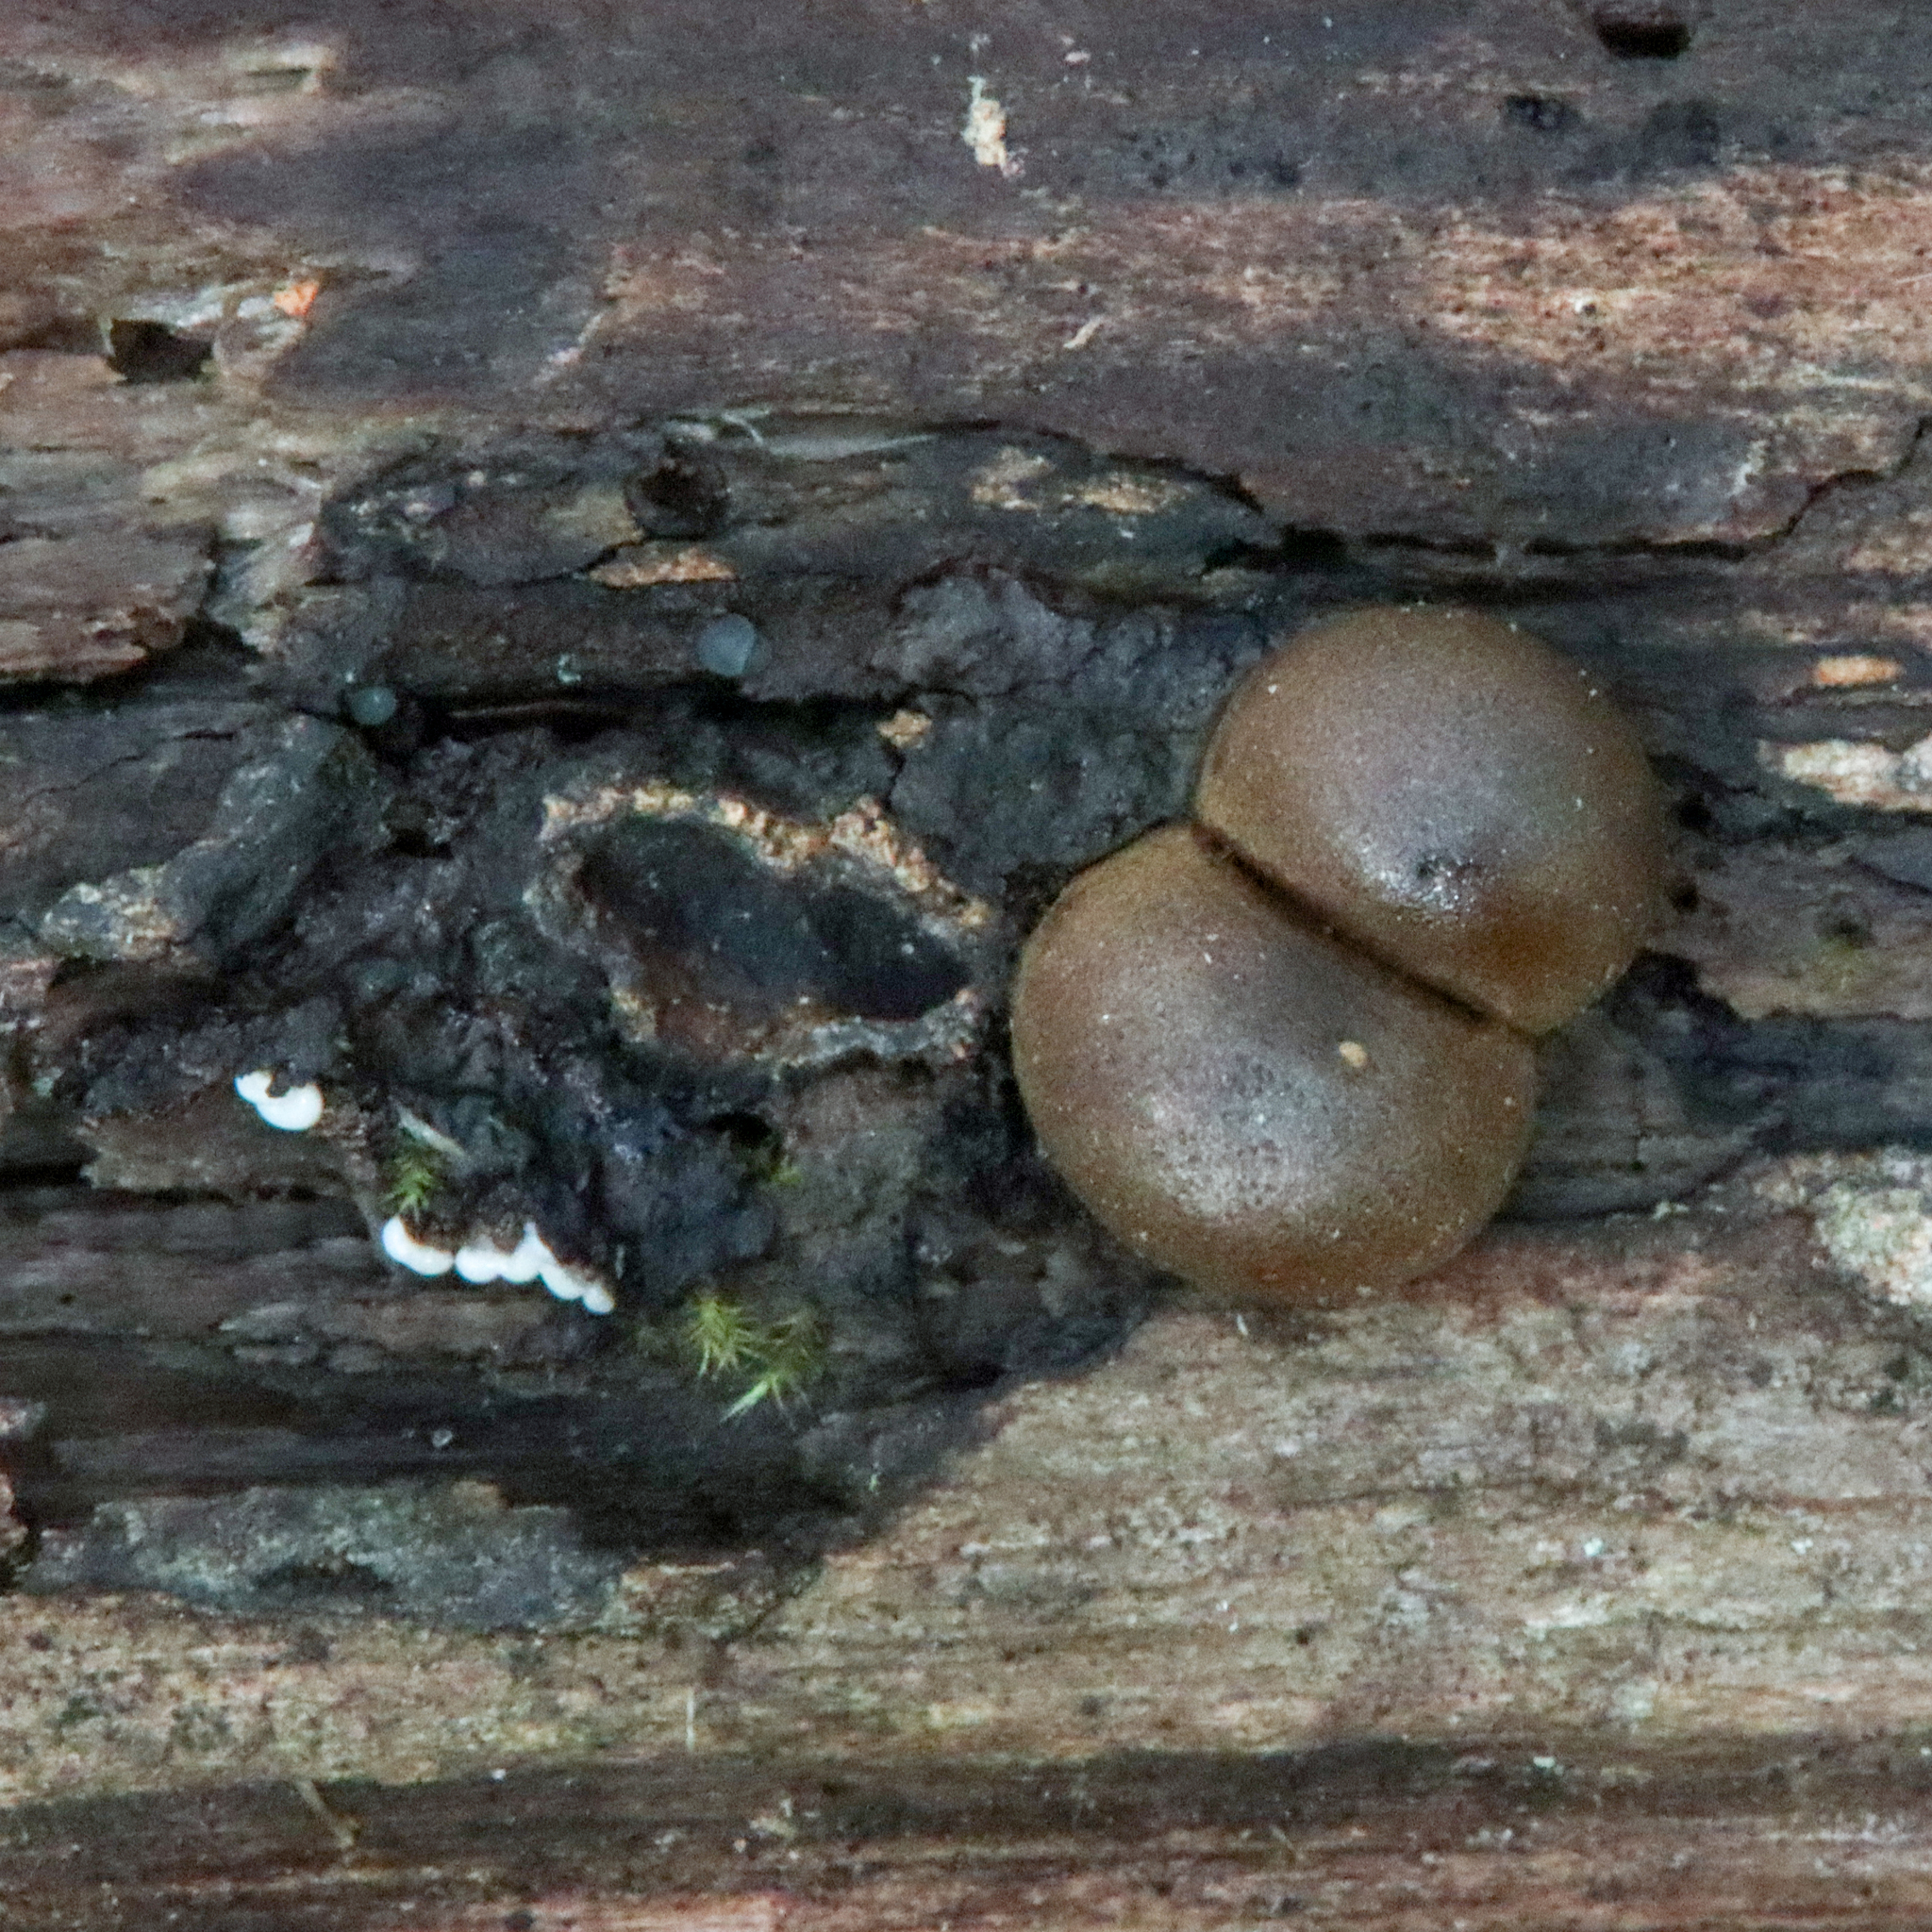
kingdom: Protozoa
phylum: Mycetozoa
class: Myxomycetes
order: Cribrariales
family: Tubiferaceae
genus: Lycogala
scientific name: Lycogala epidendrum
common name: Wolf's milk
